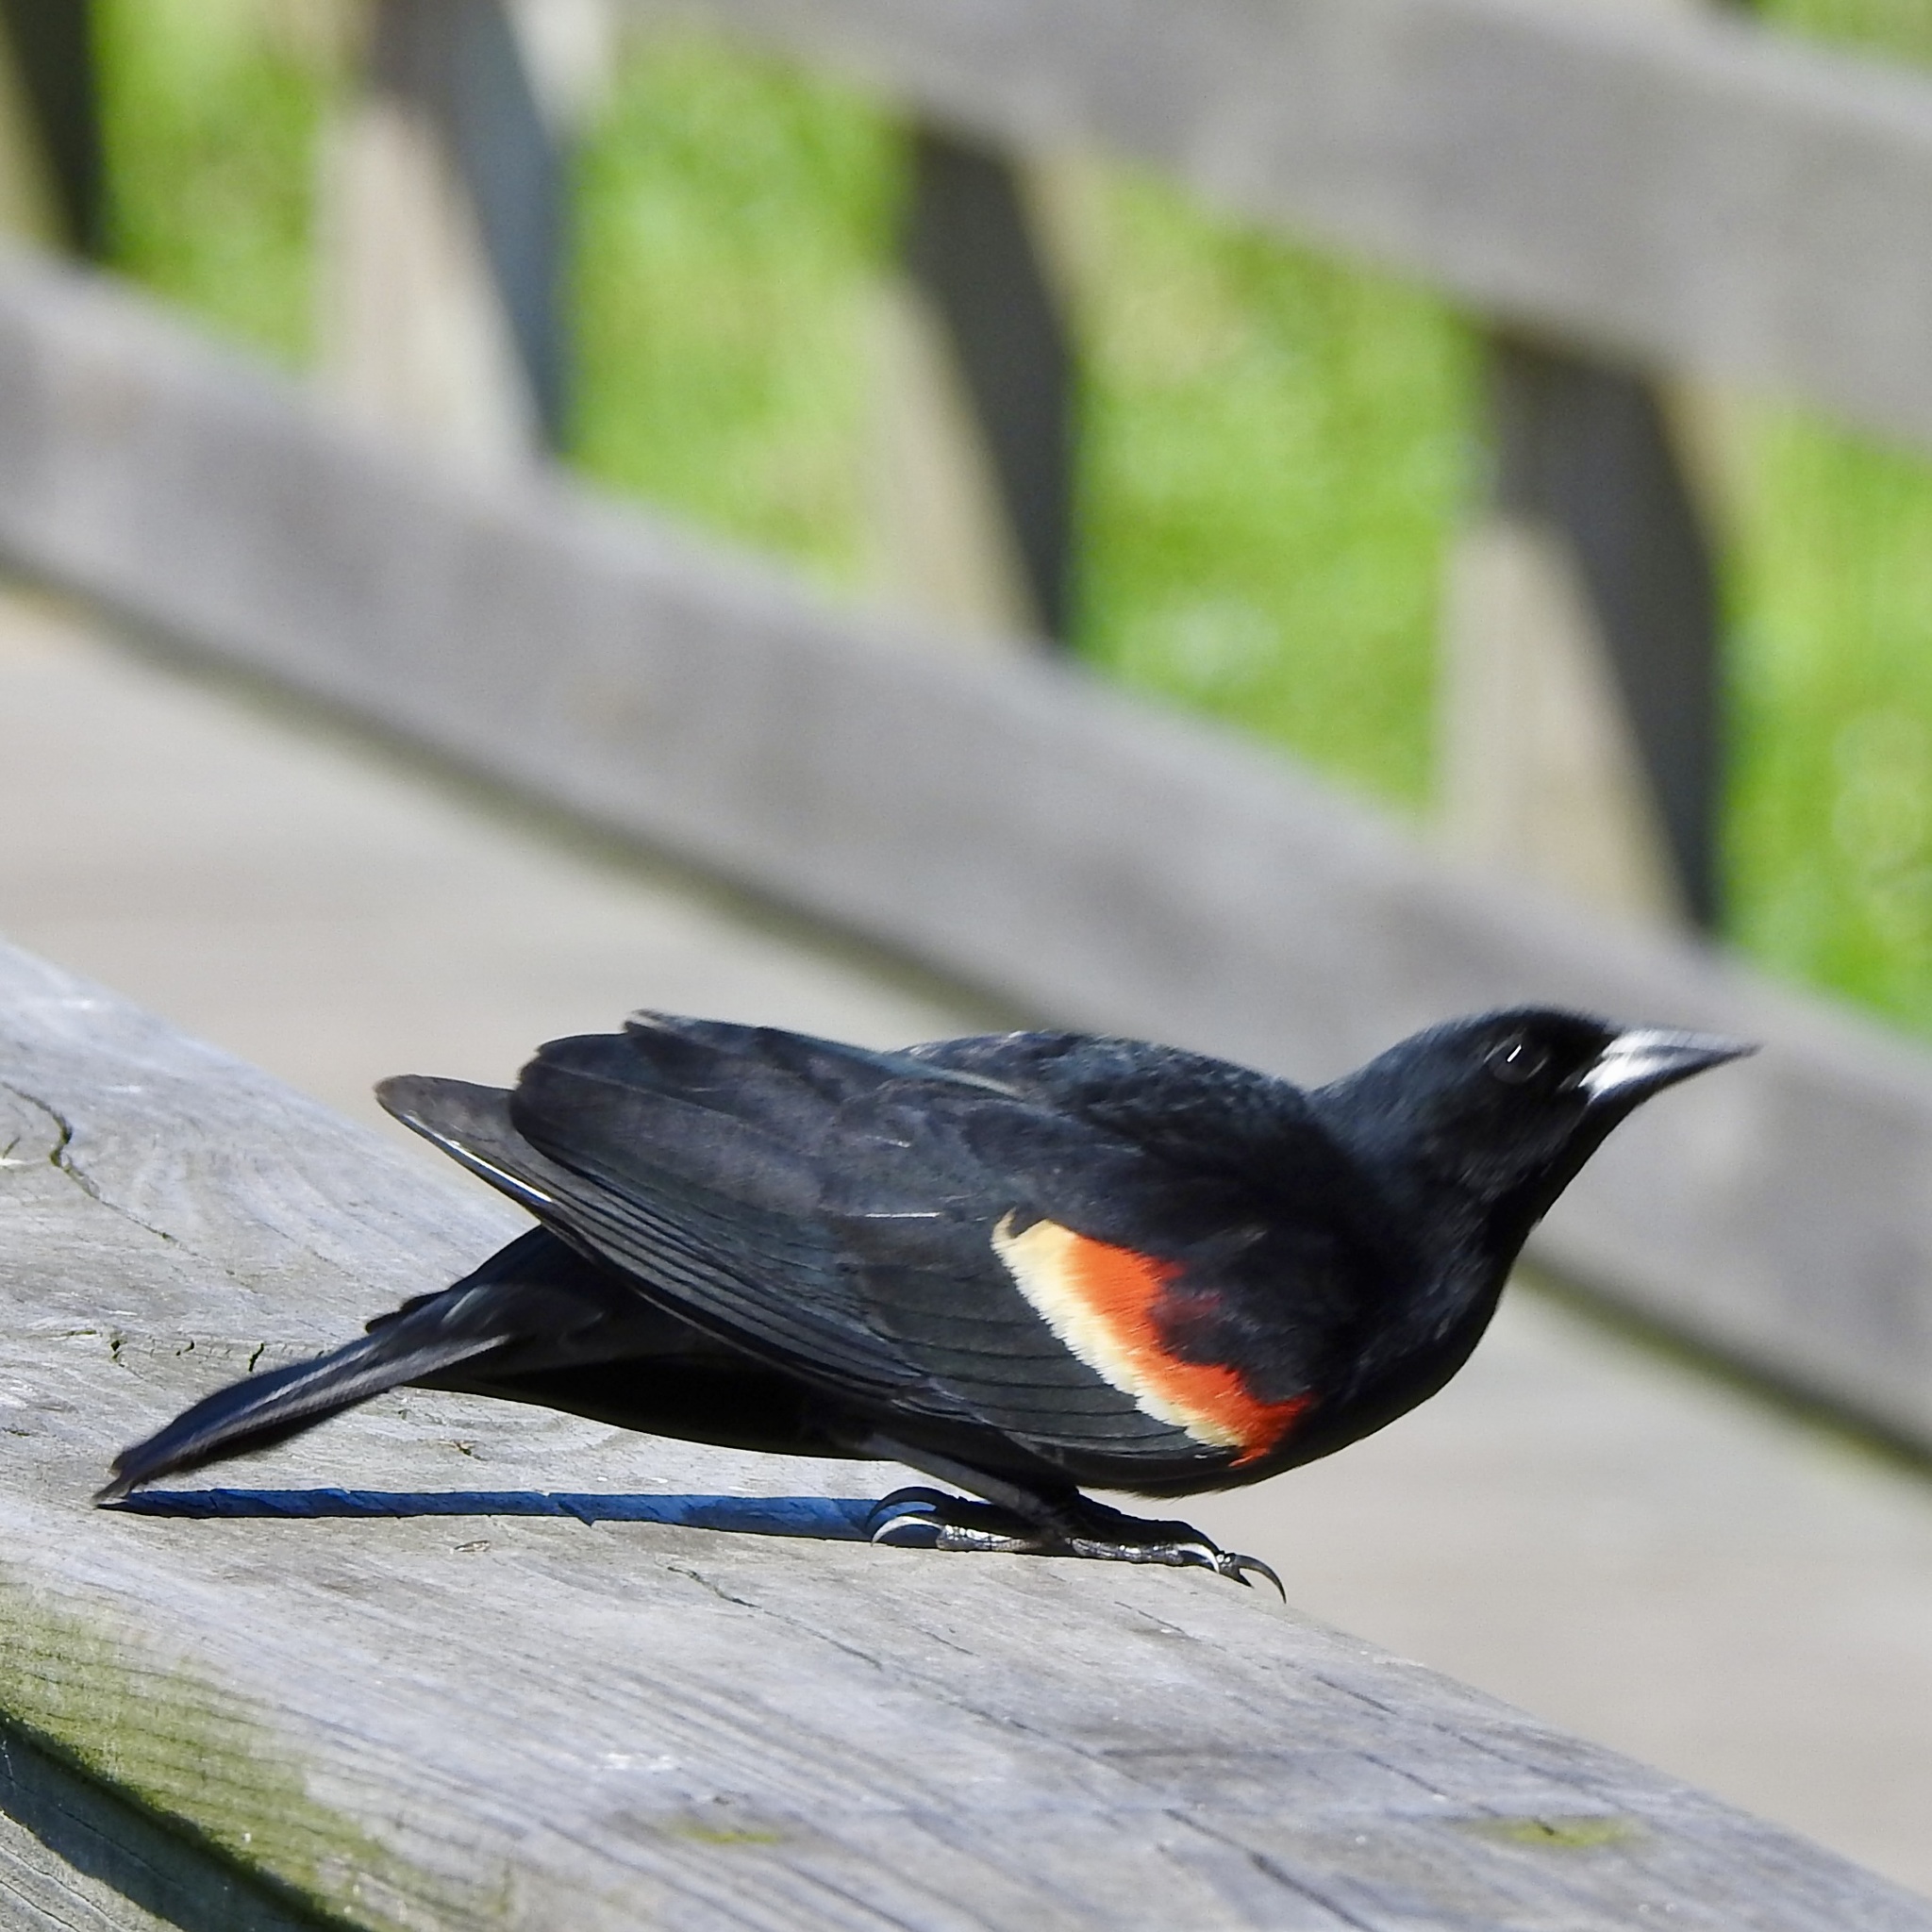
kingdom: Animalia
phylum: Chordata
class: Aves
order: Passeriformes
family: Icteridae
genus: Agelaius
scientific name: Agelaius phoeniceus
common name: Red-winged blackbird
